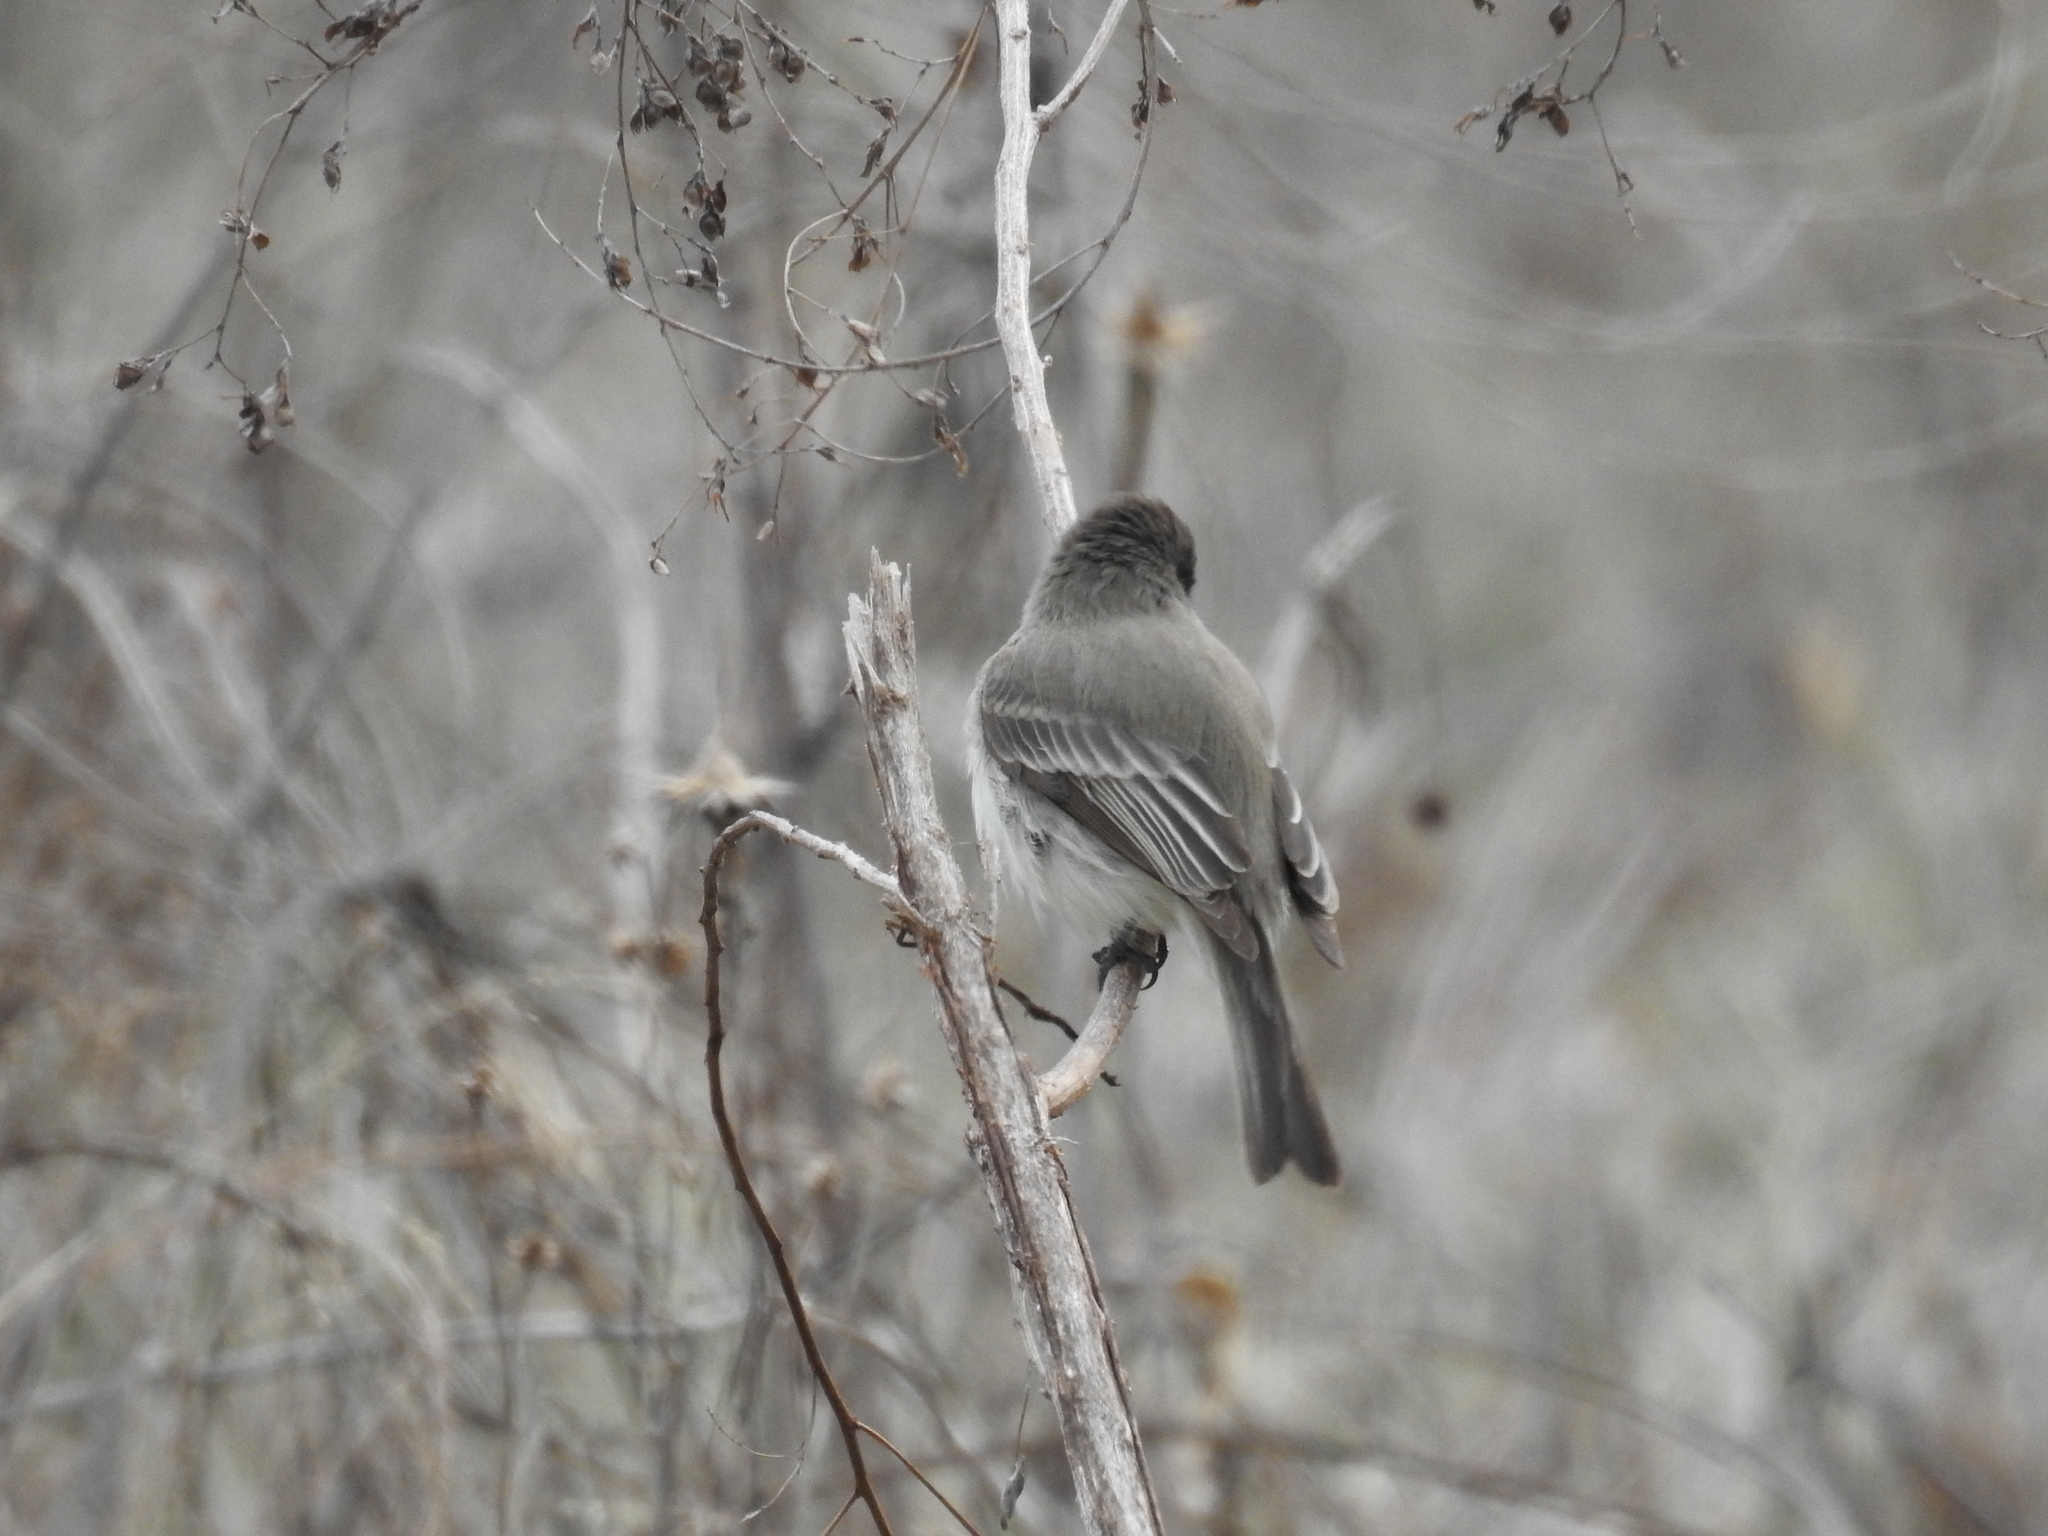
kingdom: Animalia
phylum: Chordata
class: Aves
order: Passeriformes
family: Tyrannidae
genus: Sayornis
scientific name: Sayornis phoebe
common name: Eastern phoebe
